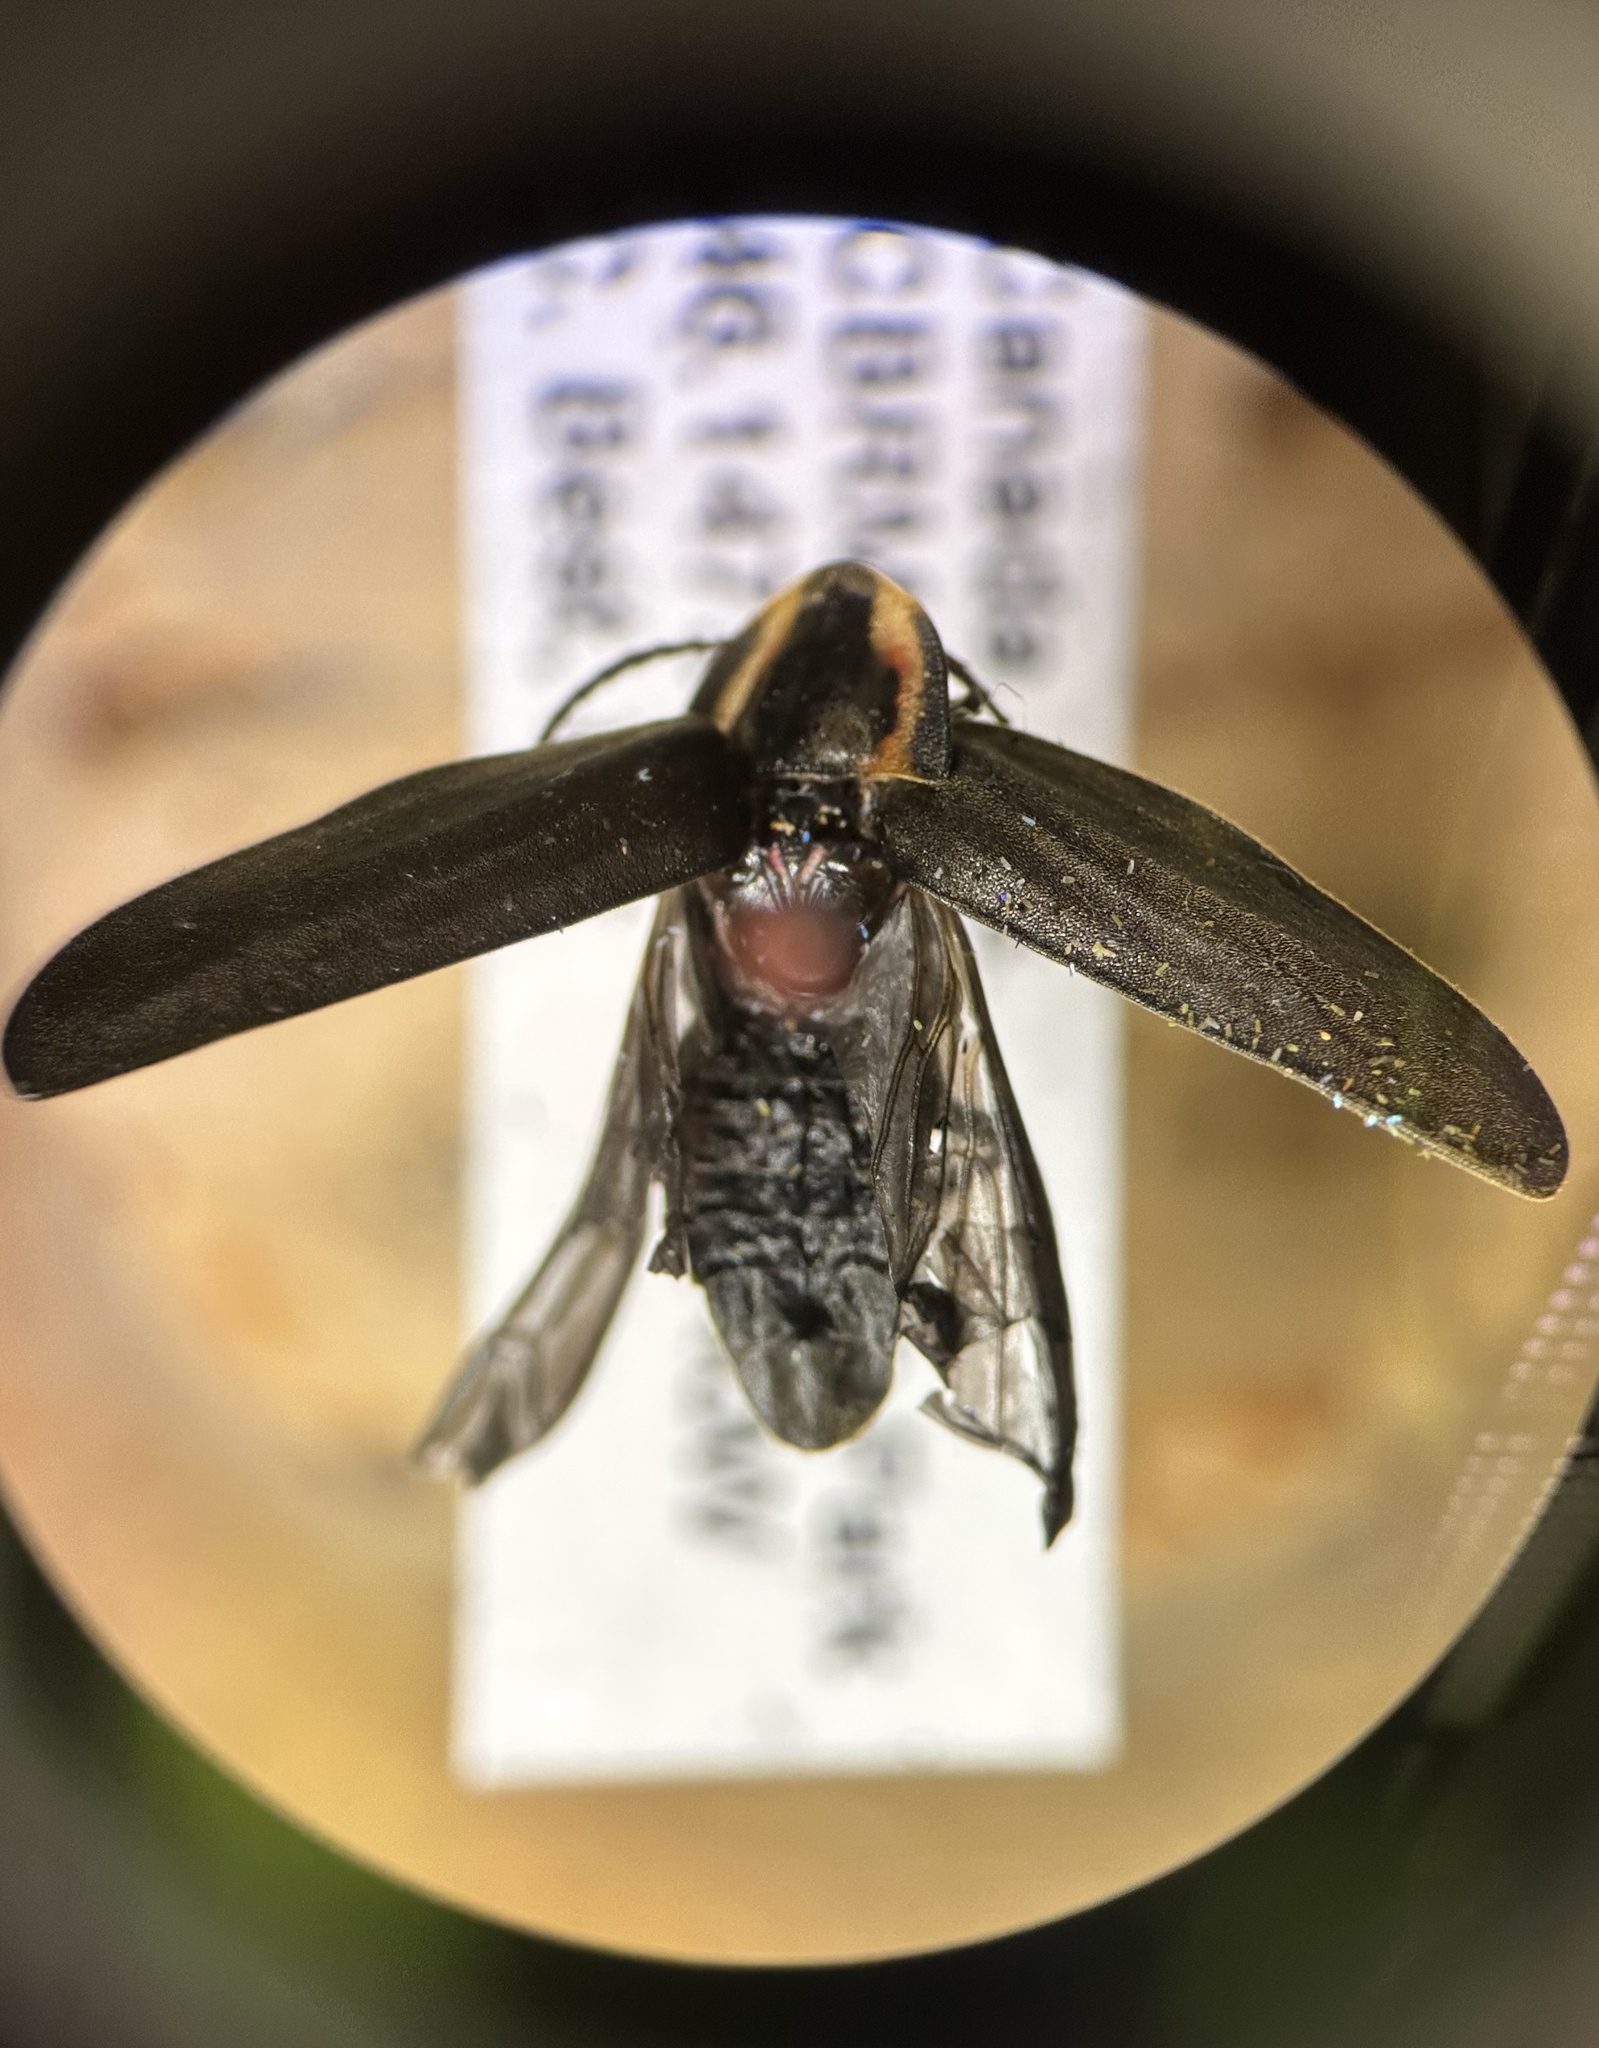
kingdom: Animalia
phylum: Arthropoda
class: Insecta
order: Coleoptera
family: Lampyridae
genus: Photinus
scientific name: Photinus corrusca
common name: Winter firefly
